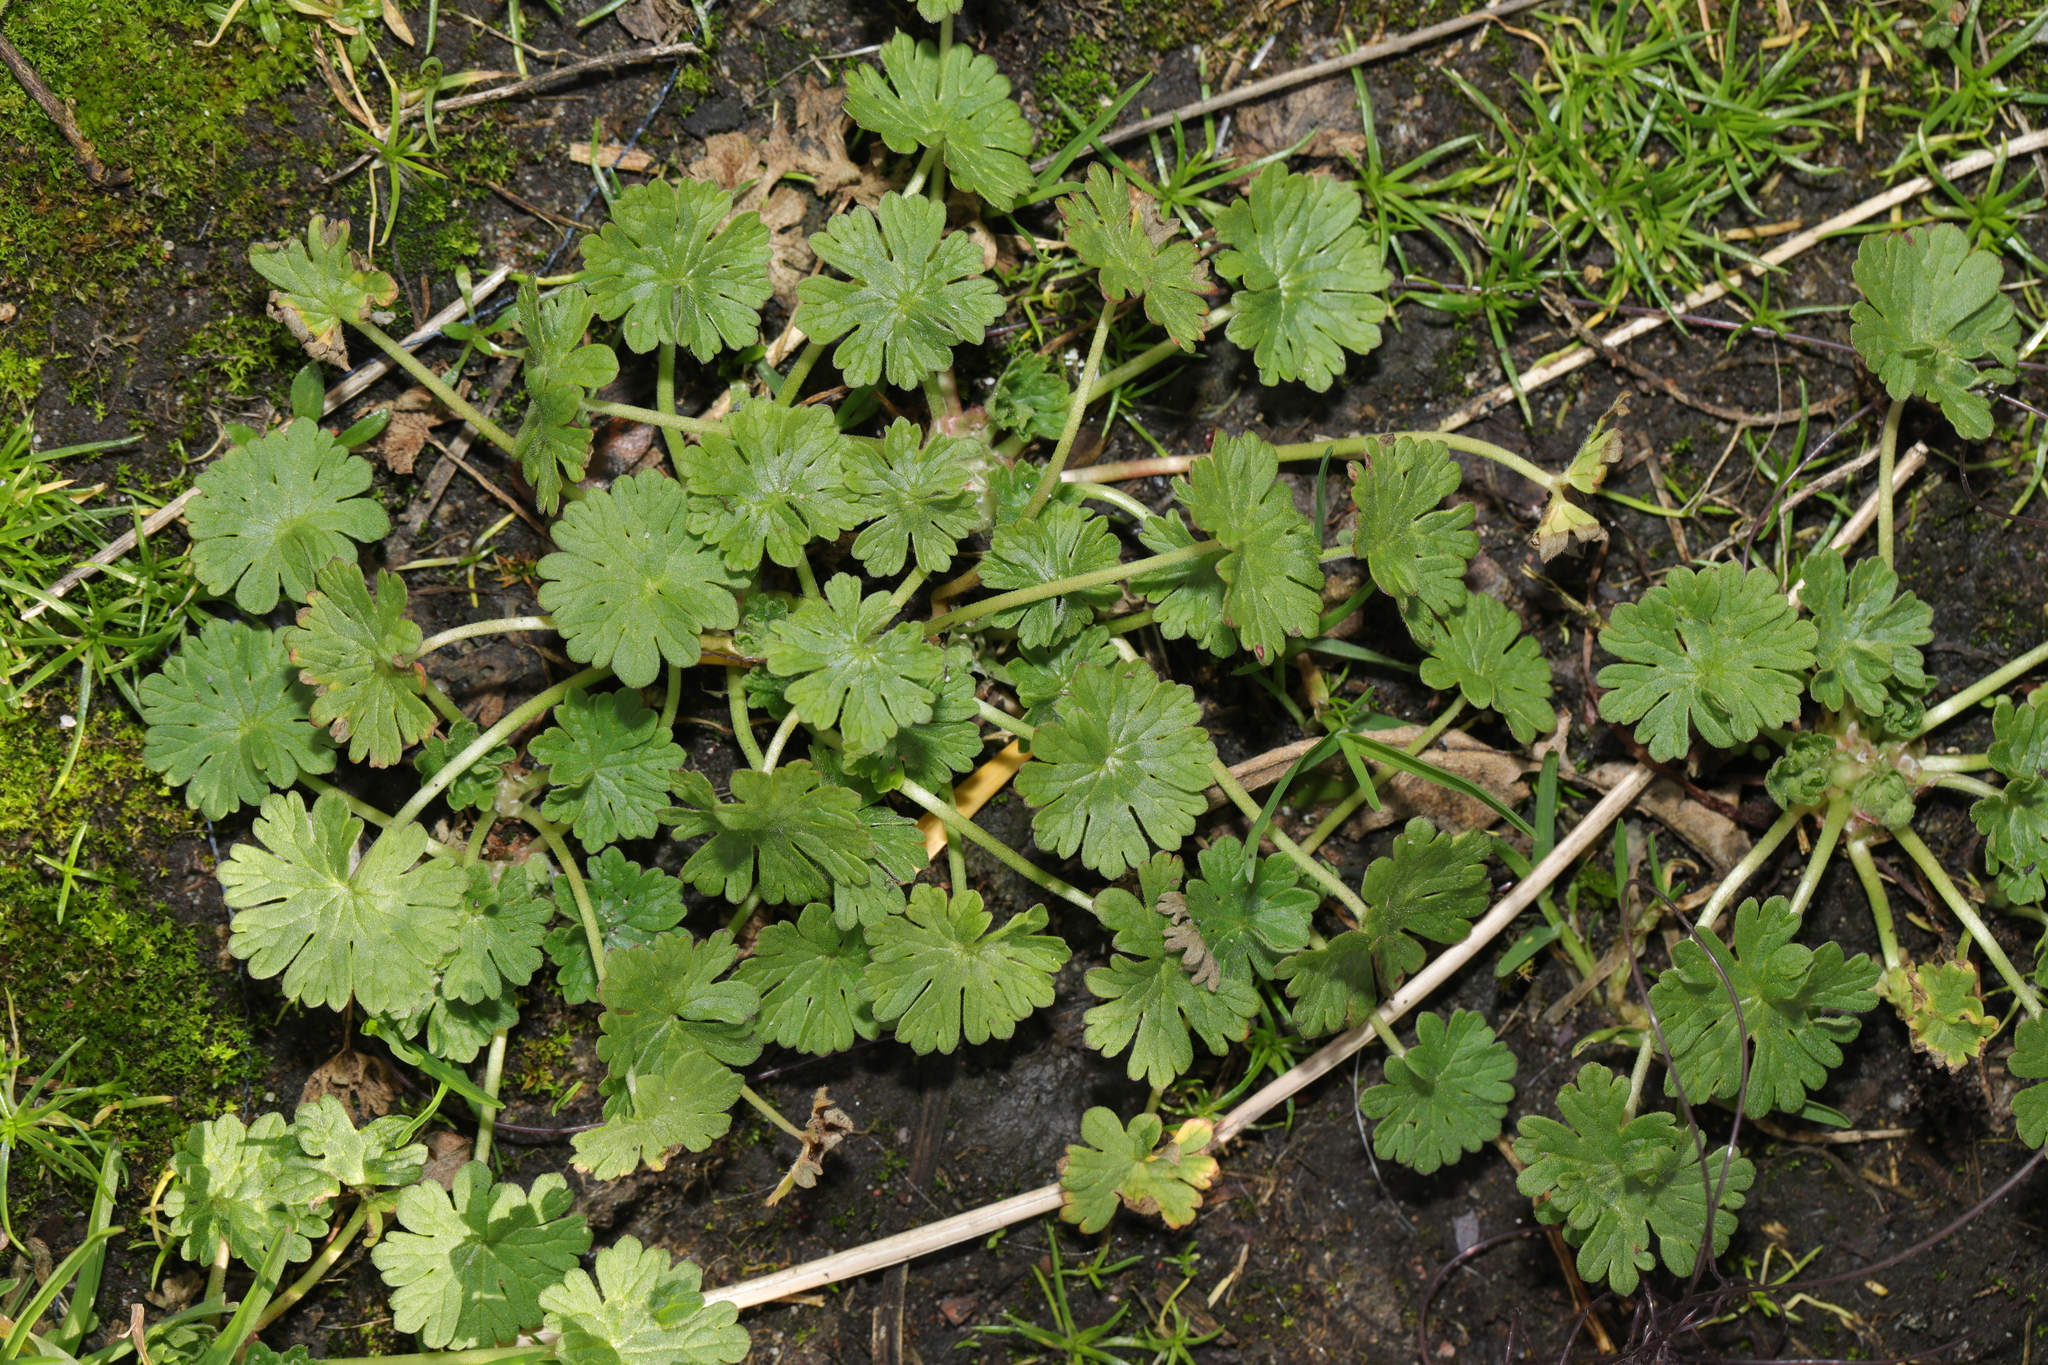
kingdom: Plantae
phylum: Tracheophyta
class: Magnoliopsida
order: Geraniales
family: Geraniaceae
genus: Geranium
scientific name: Geranium molle
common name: Dove's-foot crane's-bill
